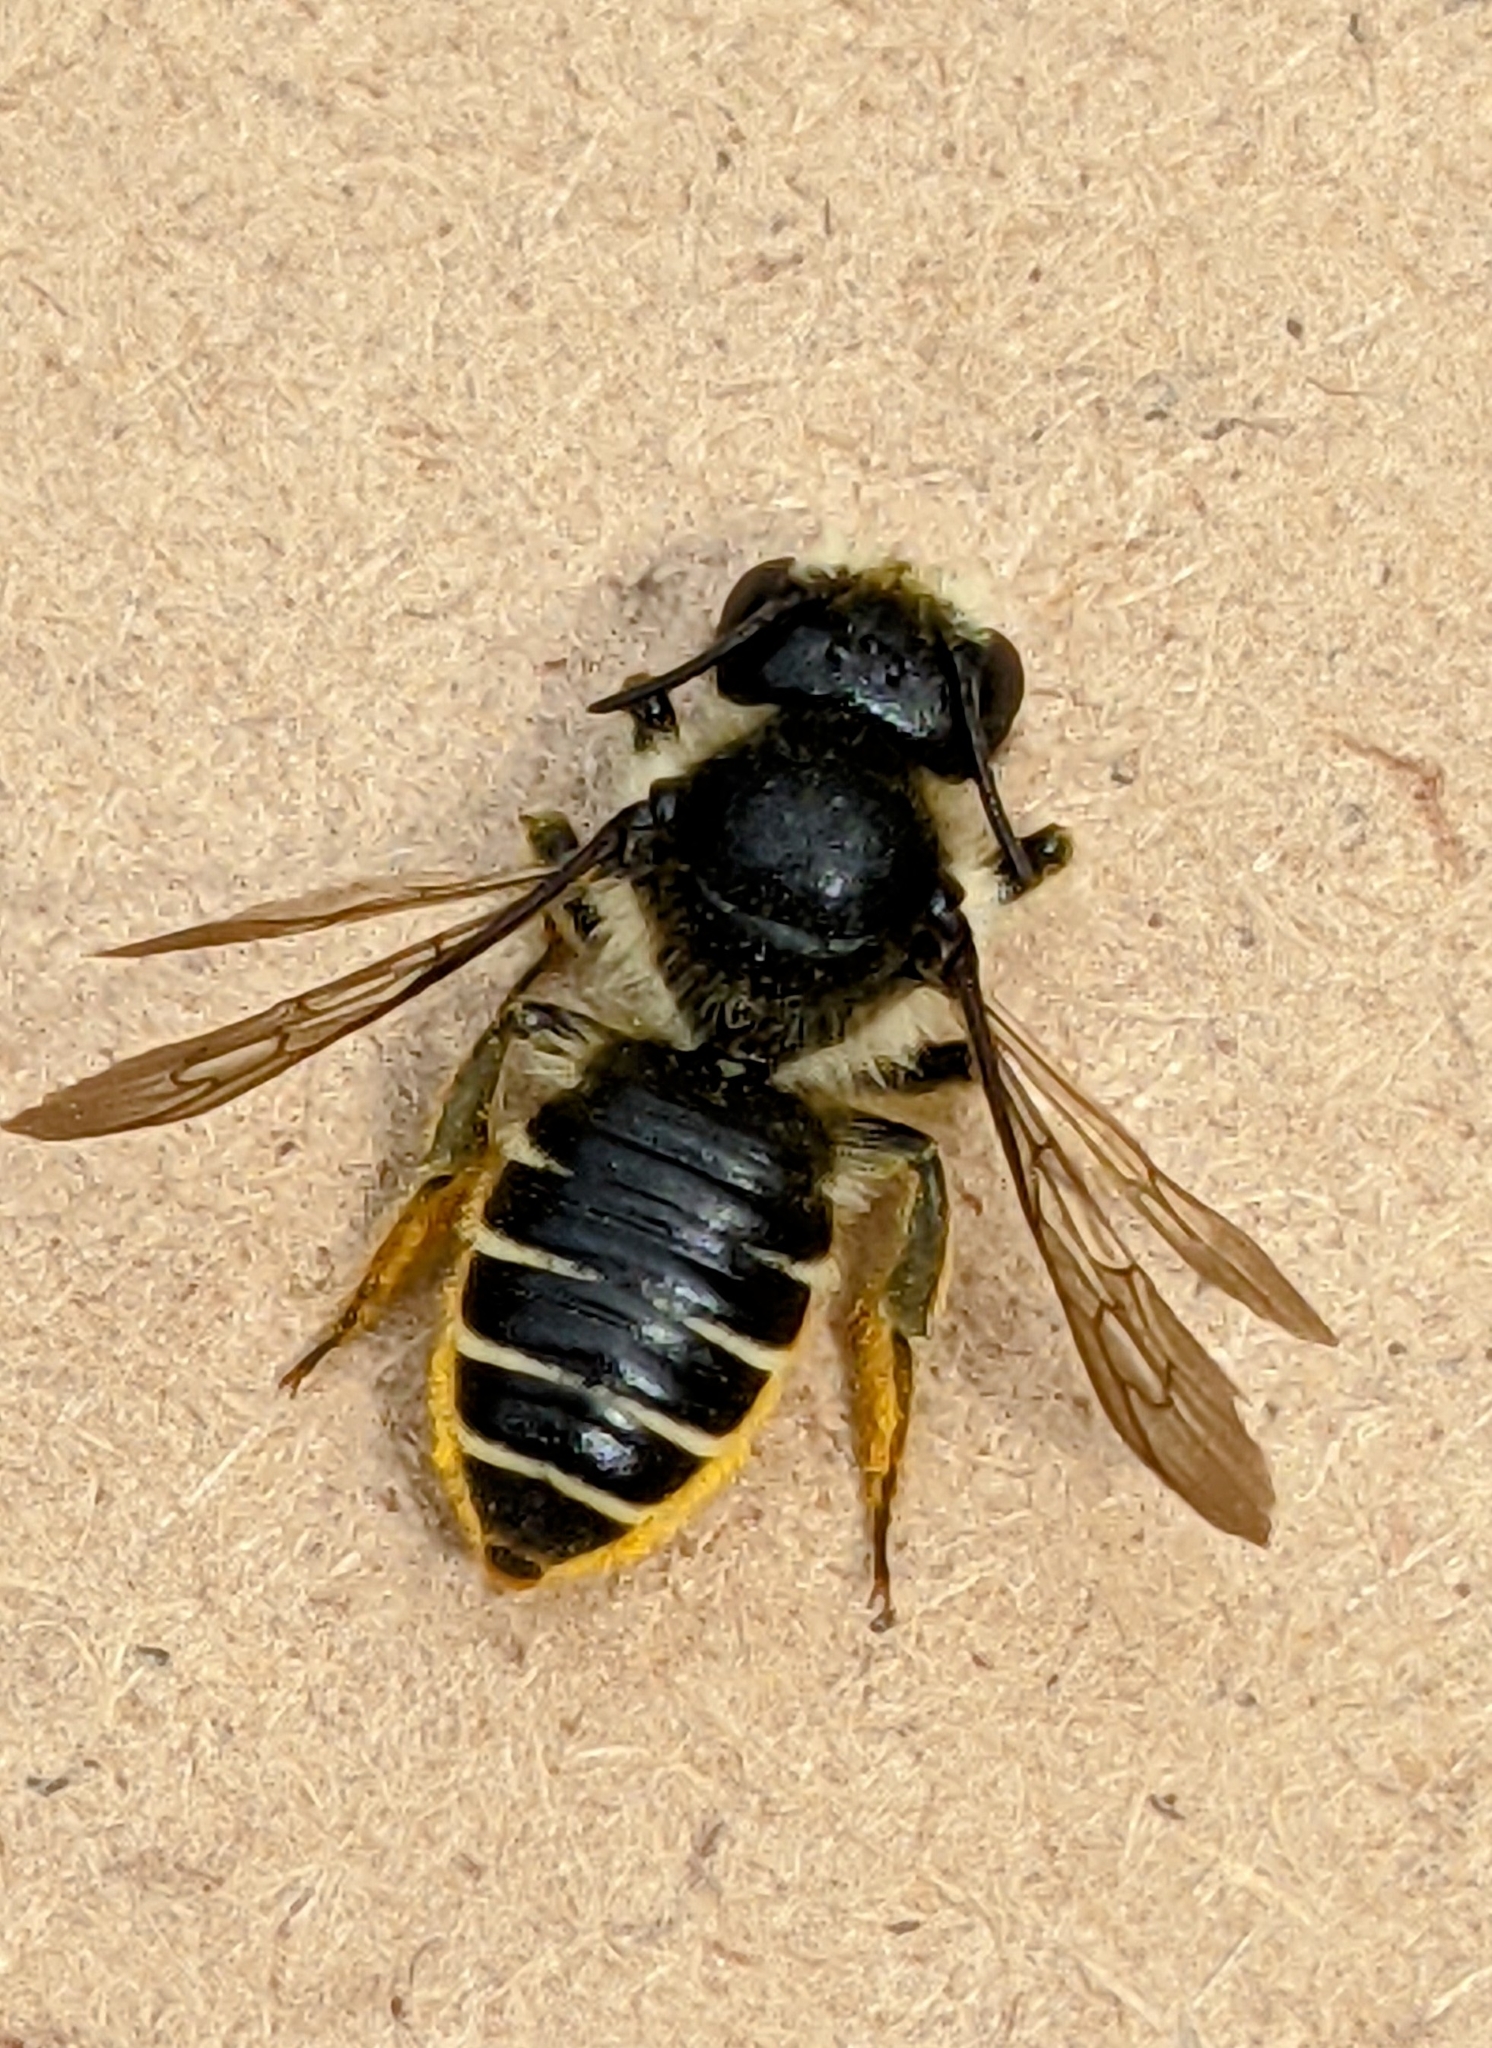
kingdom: Animalia
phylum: Arthropoda
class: Insecta
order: Hymenoptera
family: Megachilidae
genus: Megachile
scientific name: Megachile relativa
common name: Golden-tailed leafcutter
